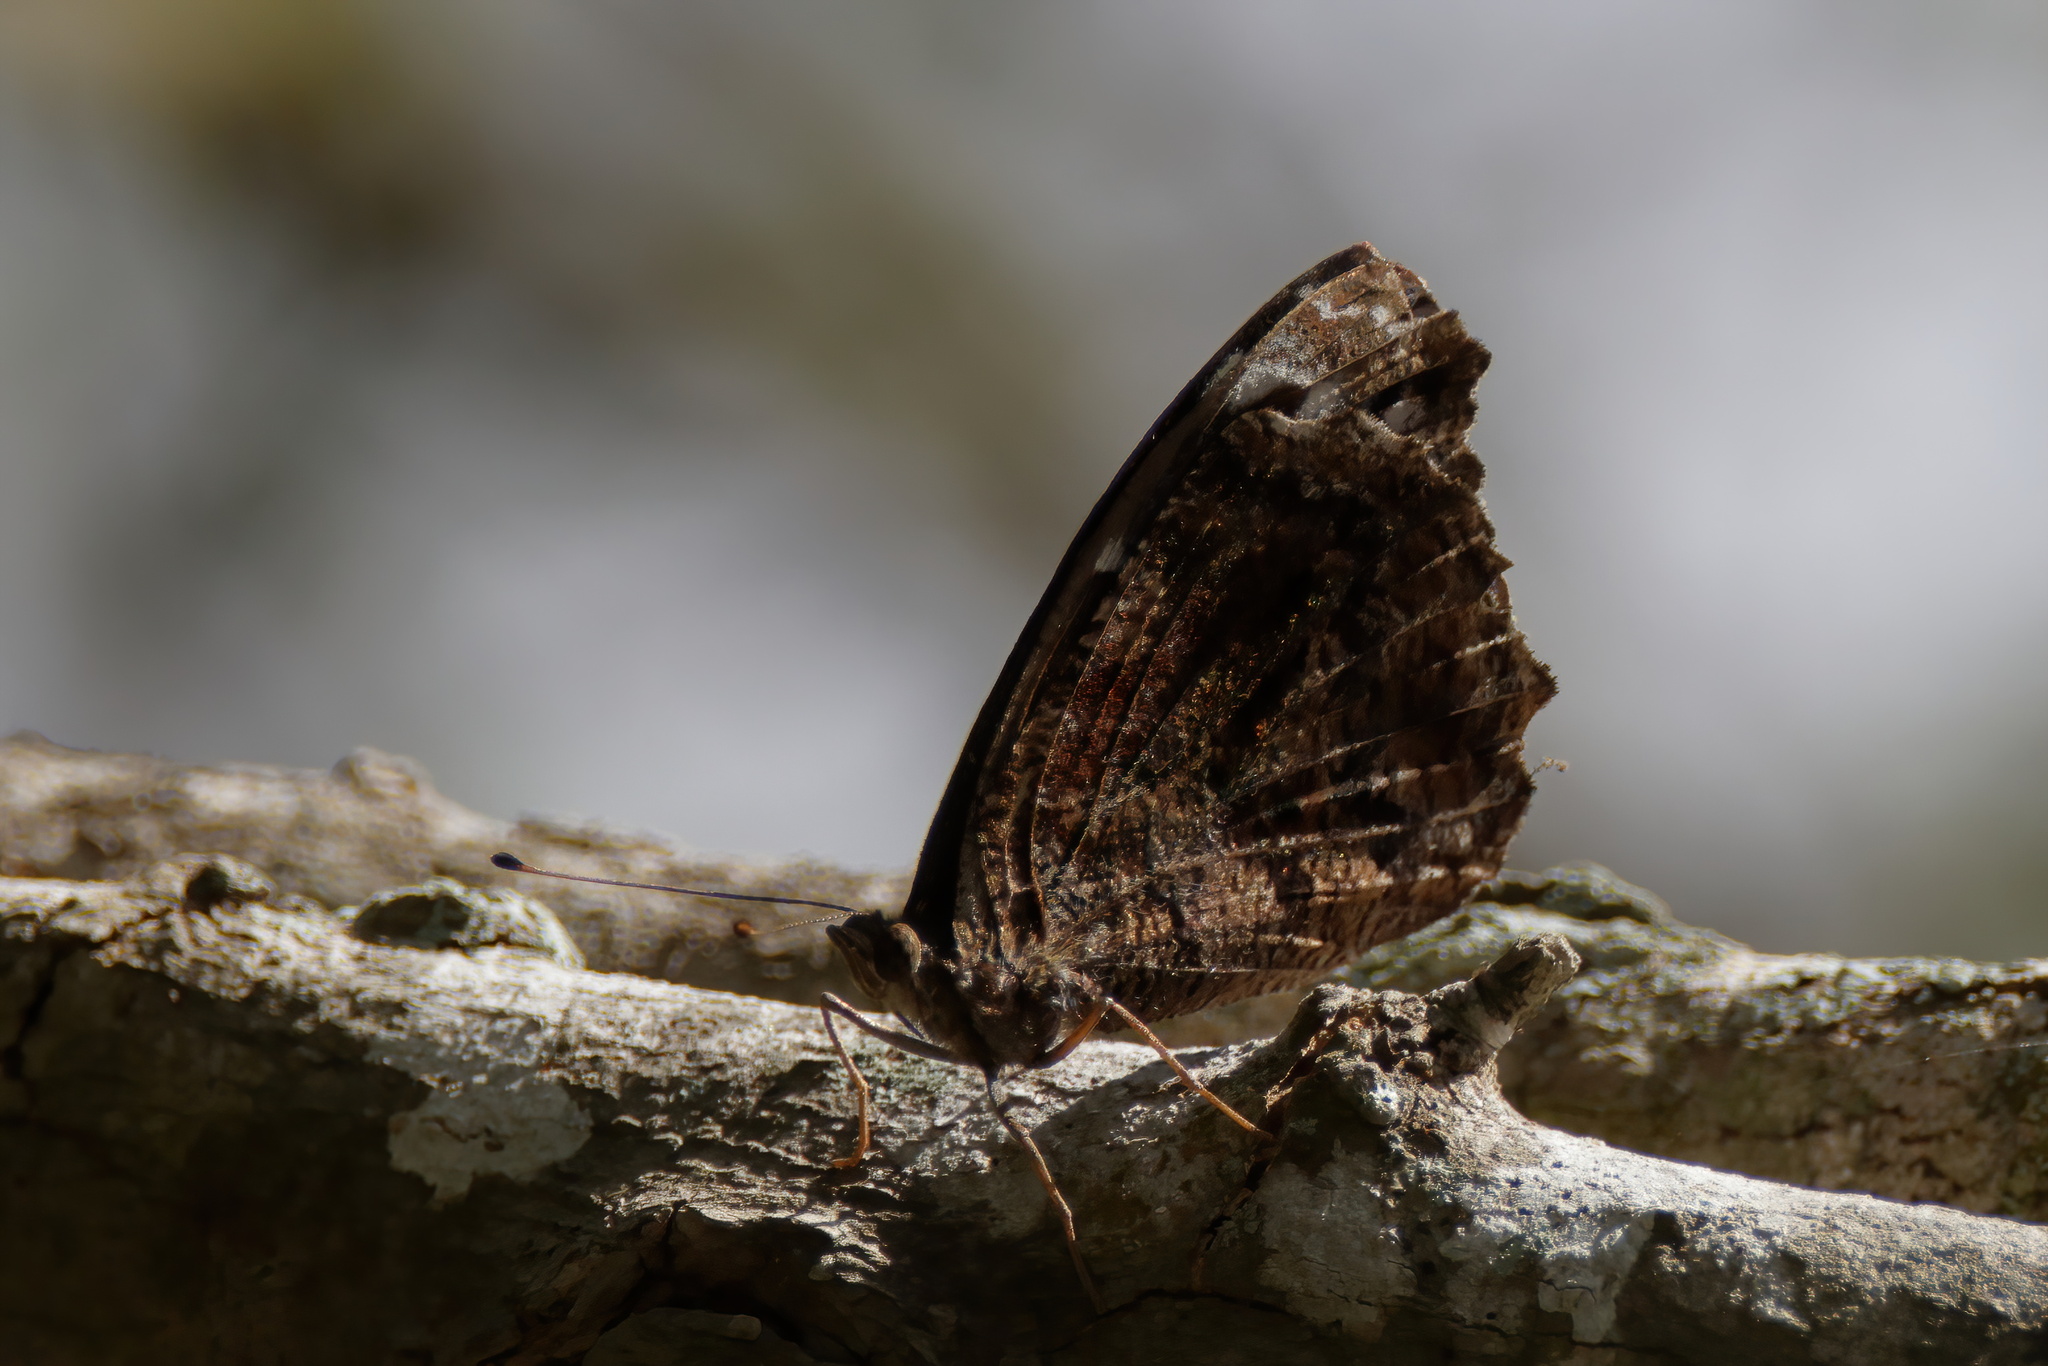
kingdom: Animalia
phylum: Arthropoda
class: Insecta
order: Lepidoptera
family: Nymphalidae
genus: Myscelia
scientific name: Myscelia ethusa
